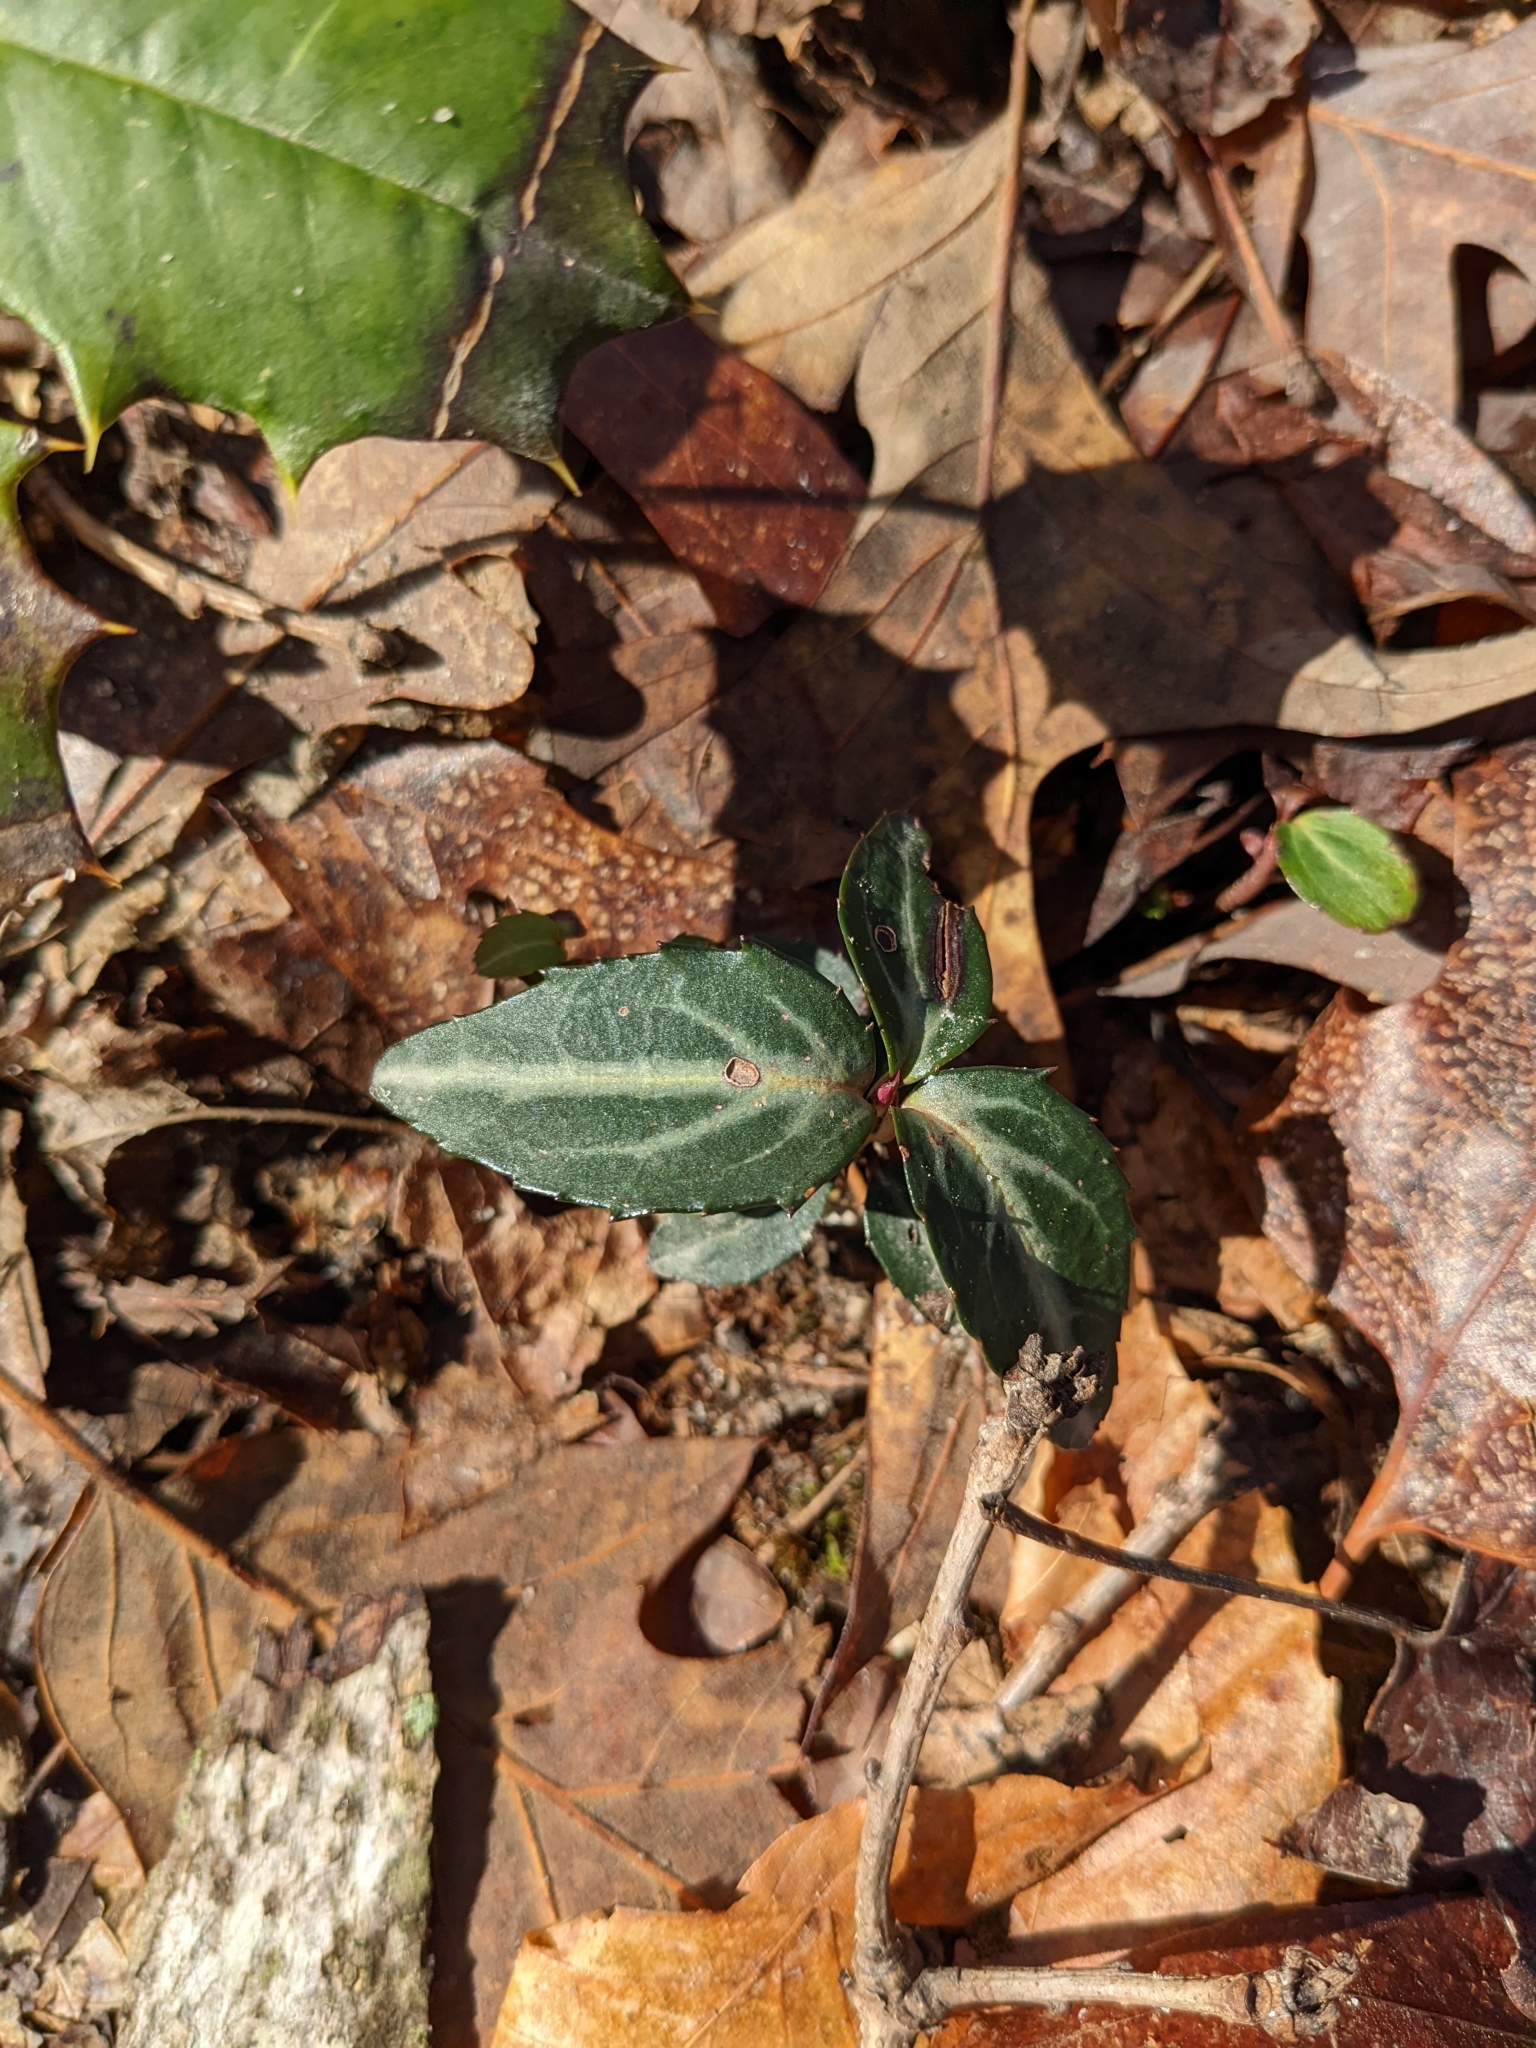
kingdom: Plantae
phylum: Tracheophyta
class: Magnoliopsida
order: Ericales
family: Ericaceae
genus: Chimaphila
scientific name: Chimaphila maculata
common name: Spotted pipsissewa
